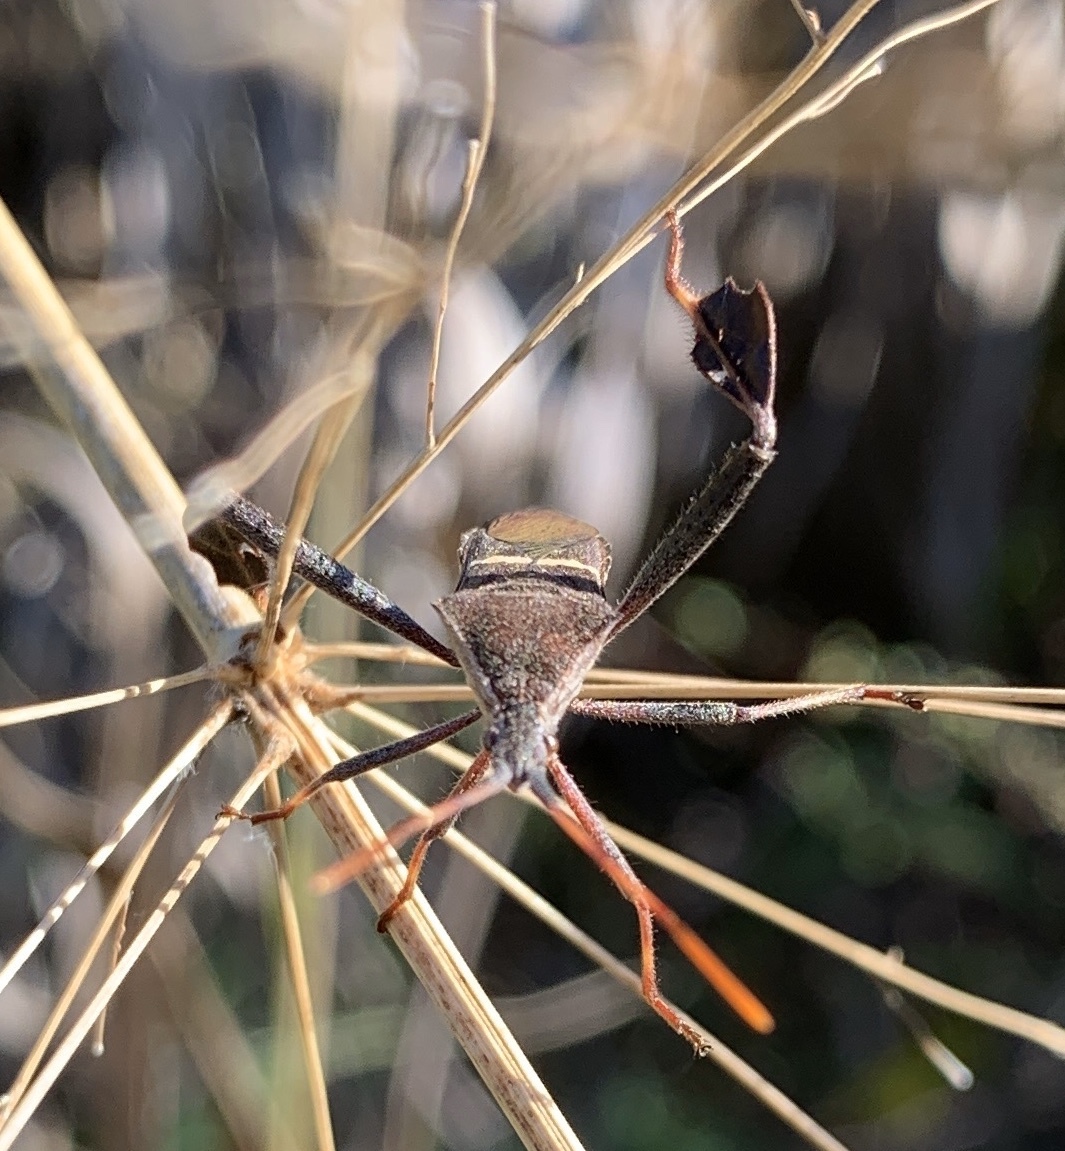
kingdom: Animalia
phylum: Arthropoda
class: Insecta
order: Hemiptera
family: Coreidae
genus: Leptoglossus
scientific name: Leptoglossus phyllopus
